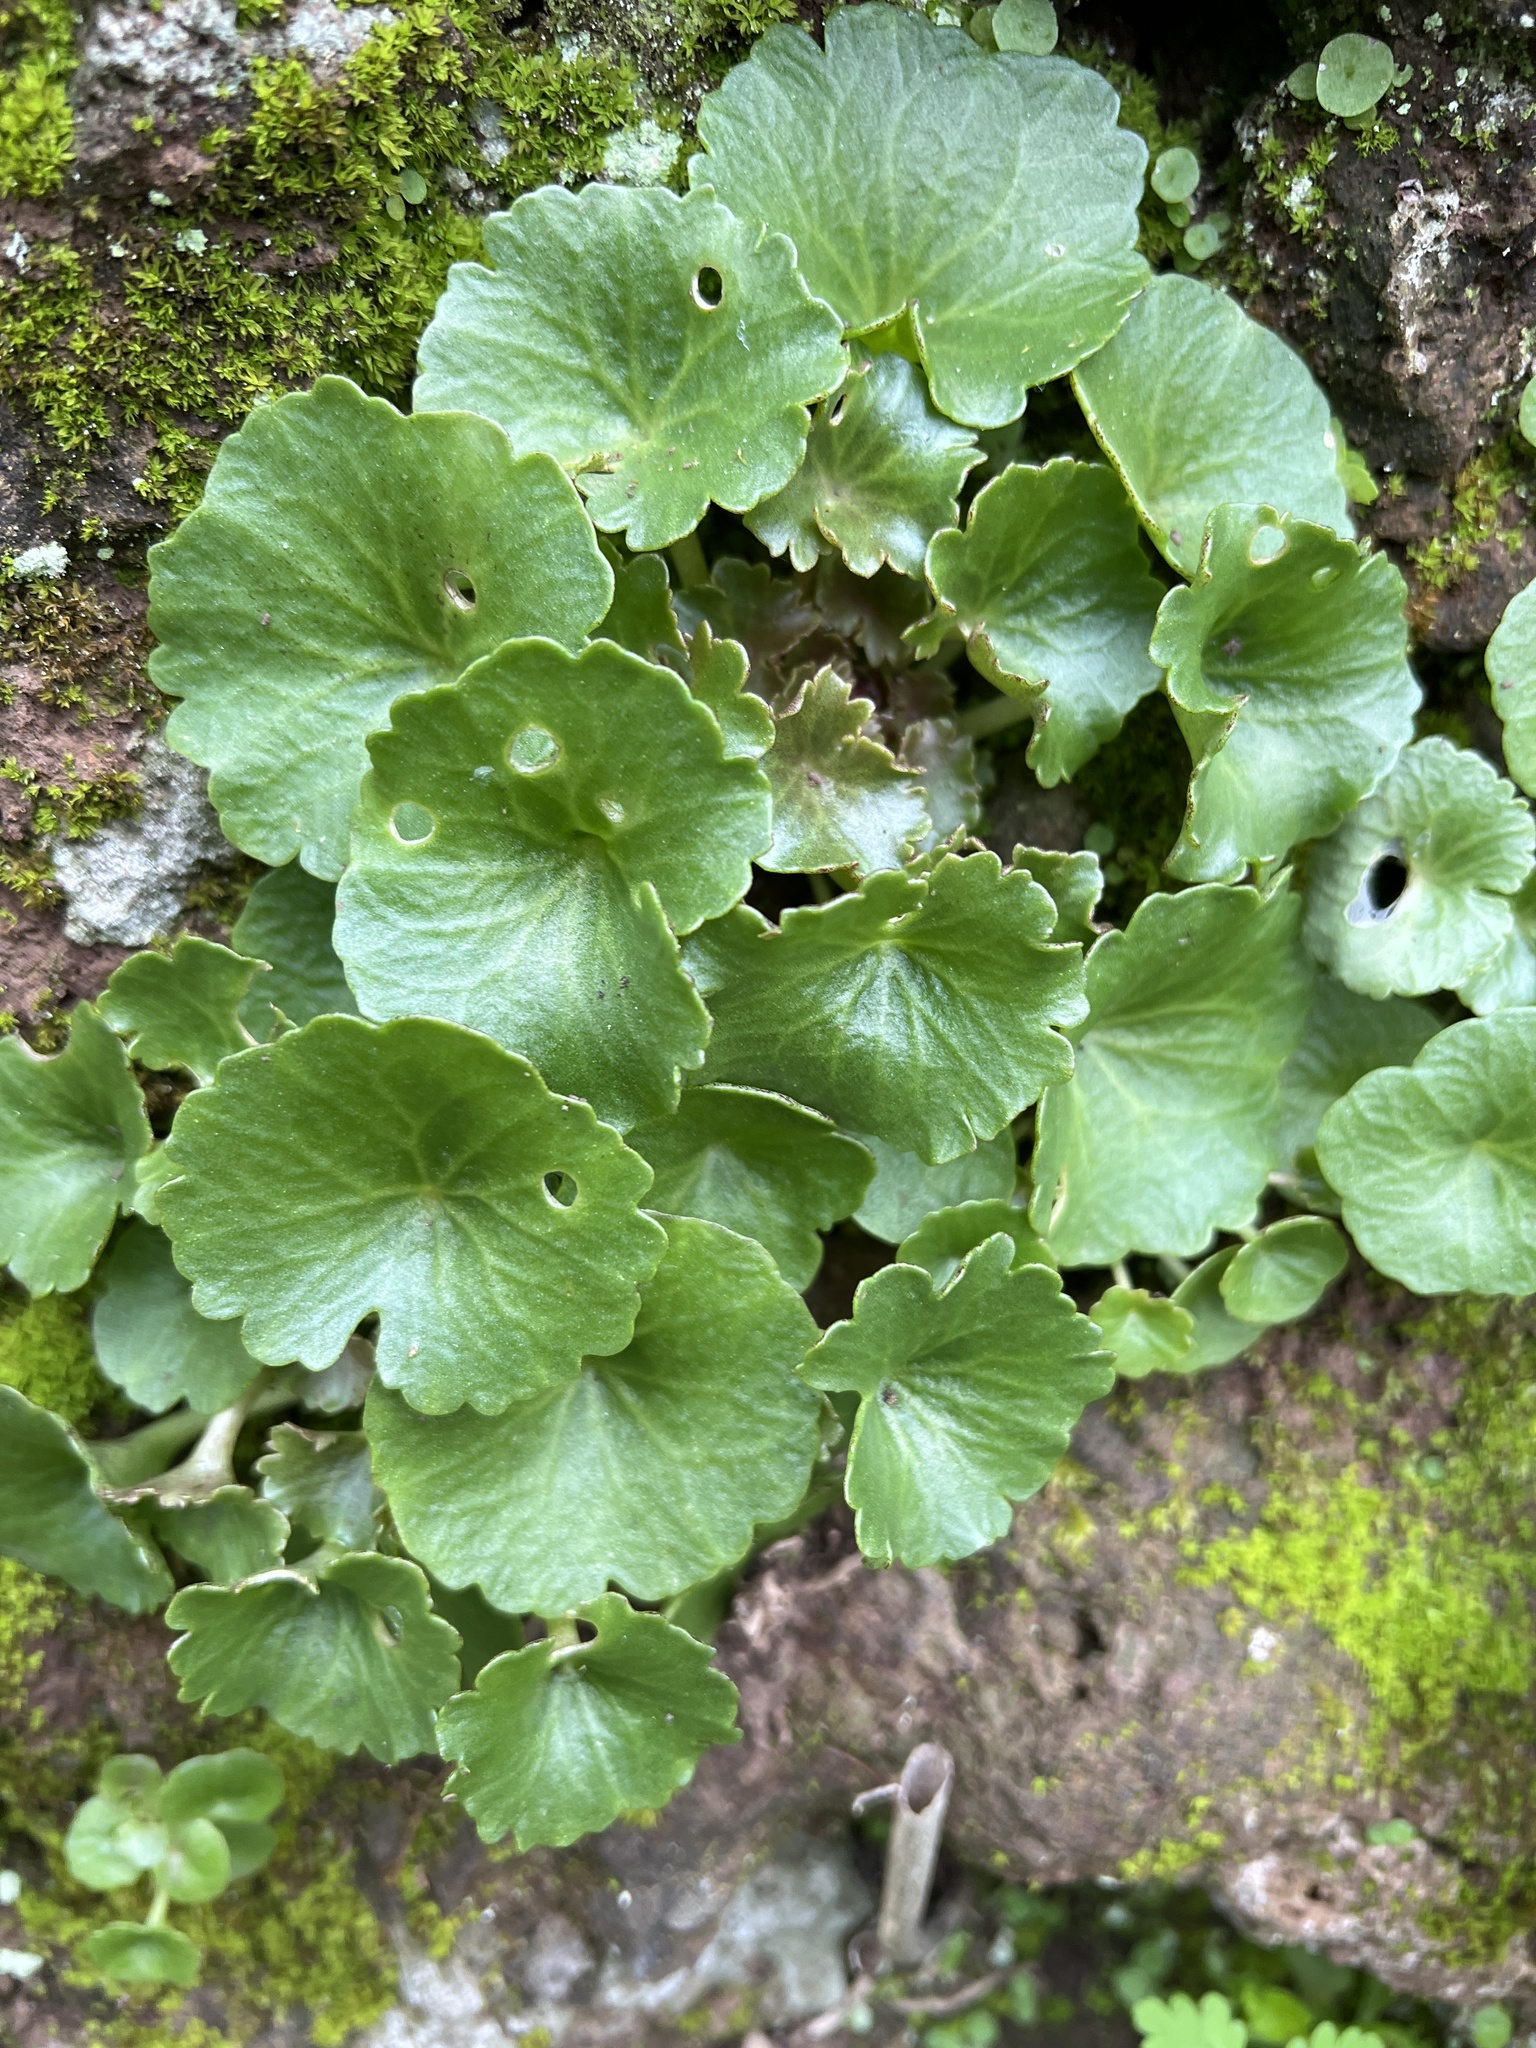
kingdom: Plantae
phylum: Tracheophyta
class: Magnoliopsida
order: Saxifragales
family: Crassulaceae
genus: Umbilicus
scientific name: Umbilicus rupestris
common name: Navelwort
